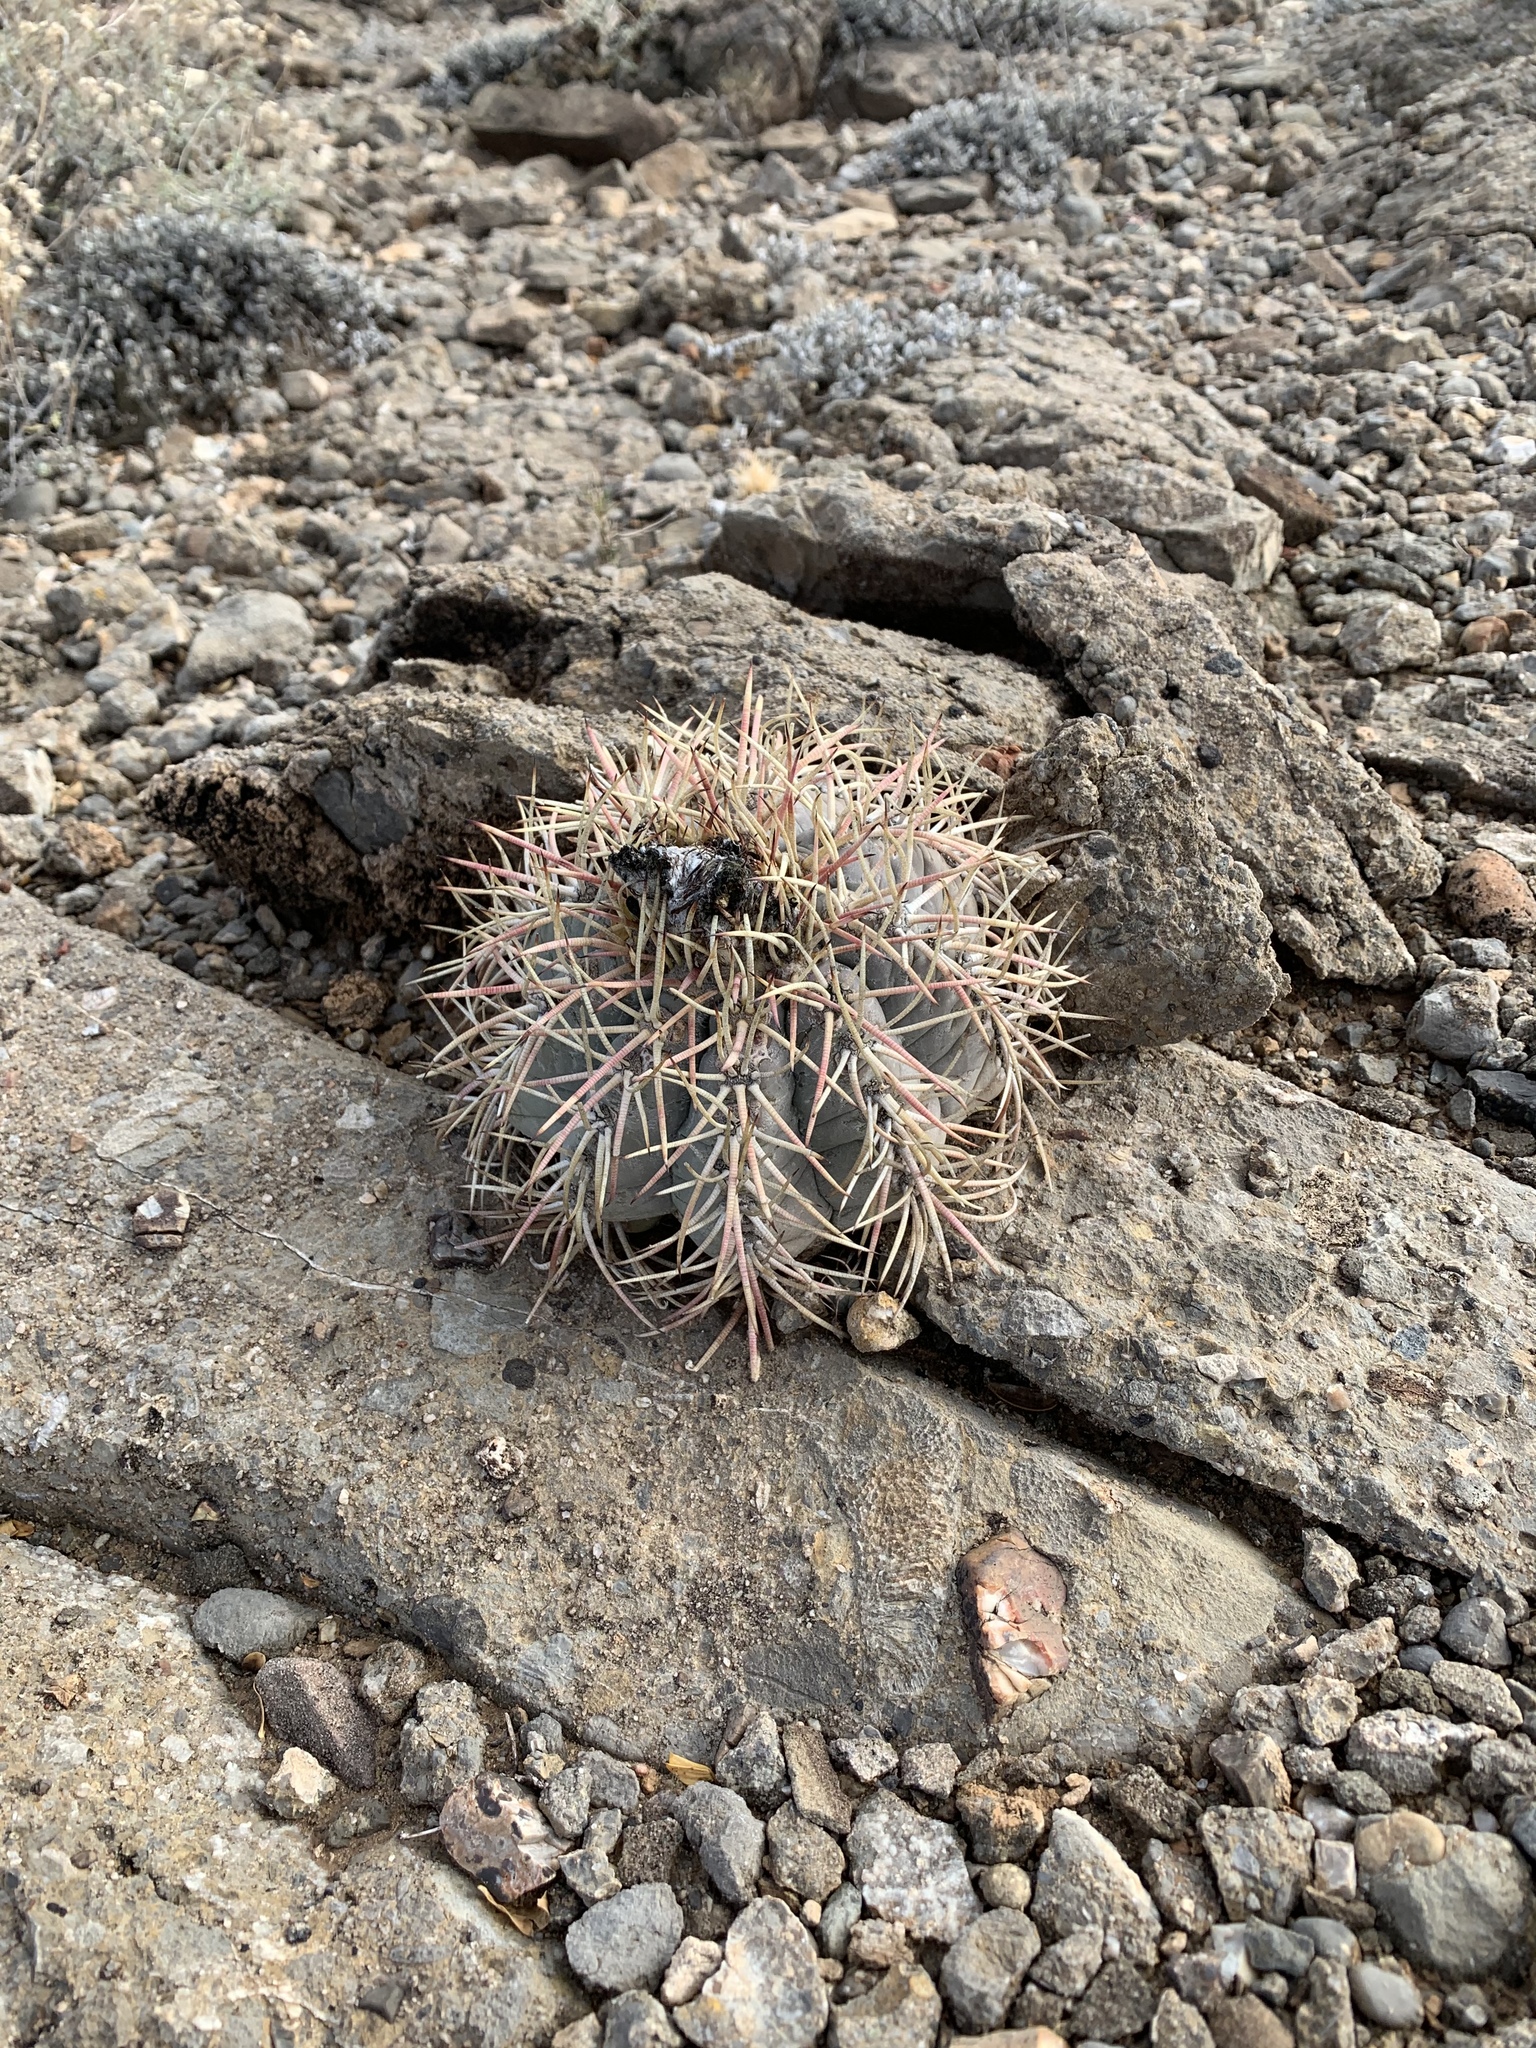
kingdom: Plantae
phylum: Tracheophyta
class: Magnoliopsida
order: Caryophyllales
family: Cactaceae
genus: Echinocactus
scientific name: Echinocactus horizonthalonius
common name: Devilshead
